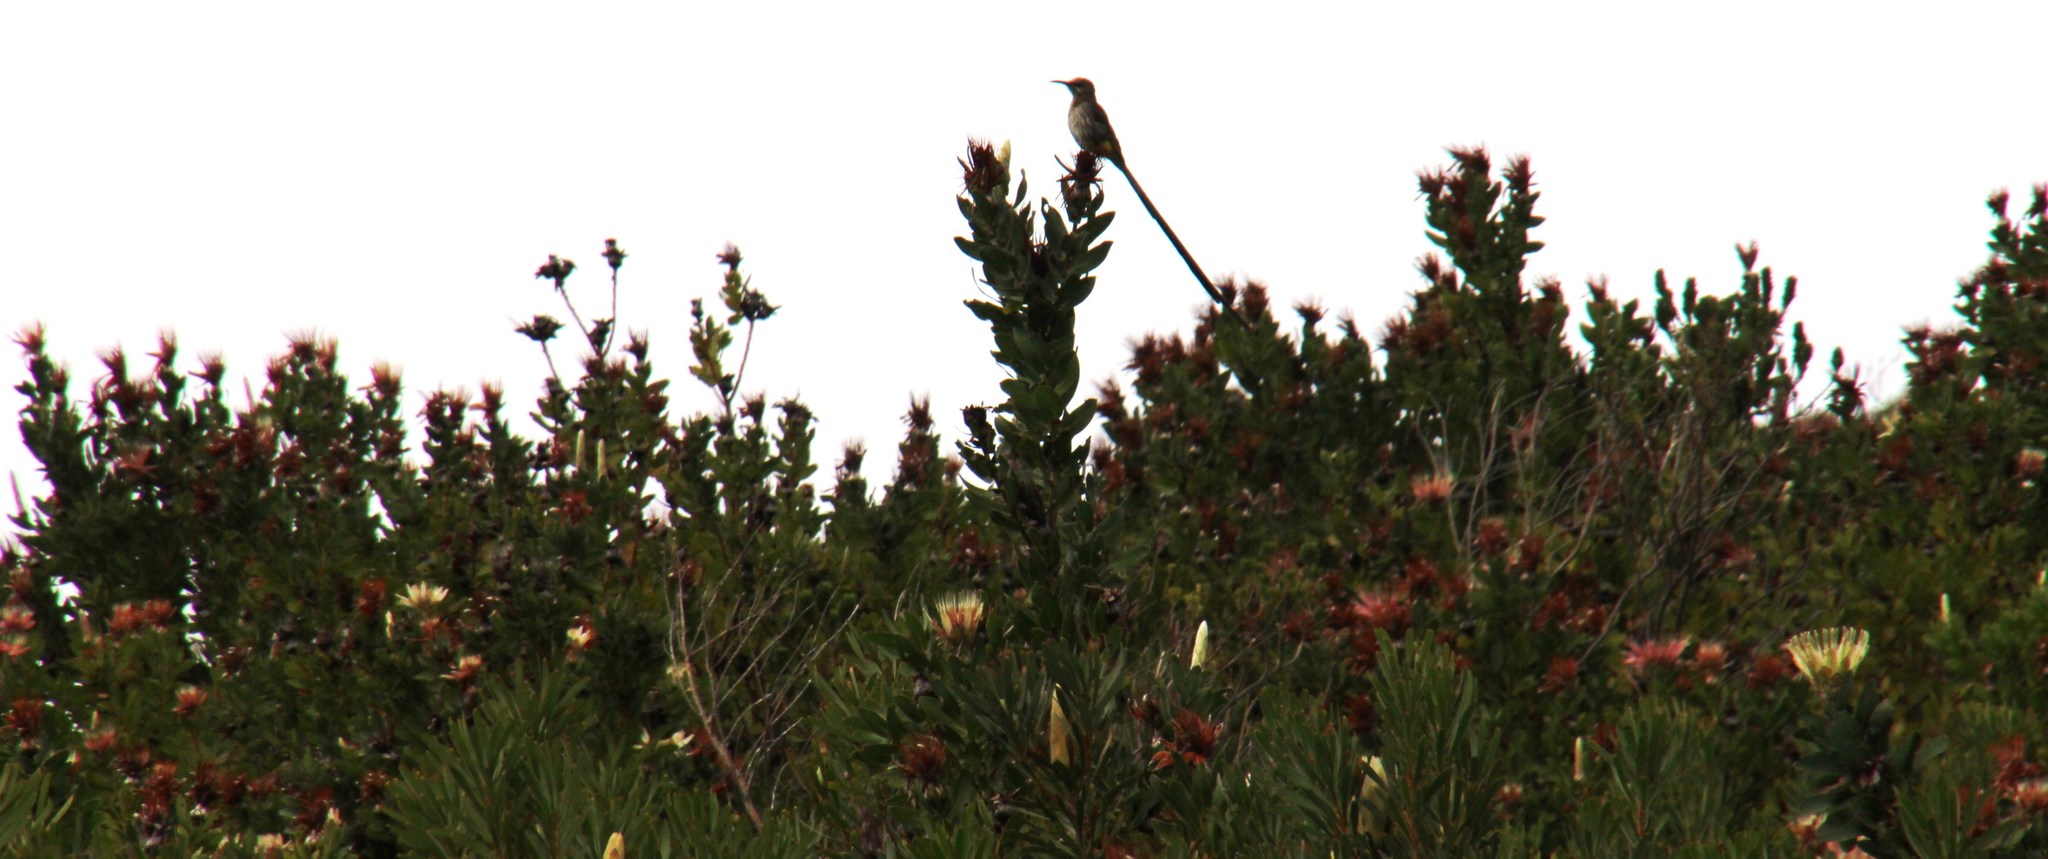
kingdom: Animalia
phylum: Chordata
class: Aves
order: Passeriformes
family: Promeropidae
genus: Promerops
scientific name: Promerops cafer
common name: Cape sugarbird
